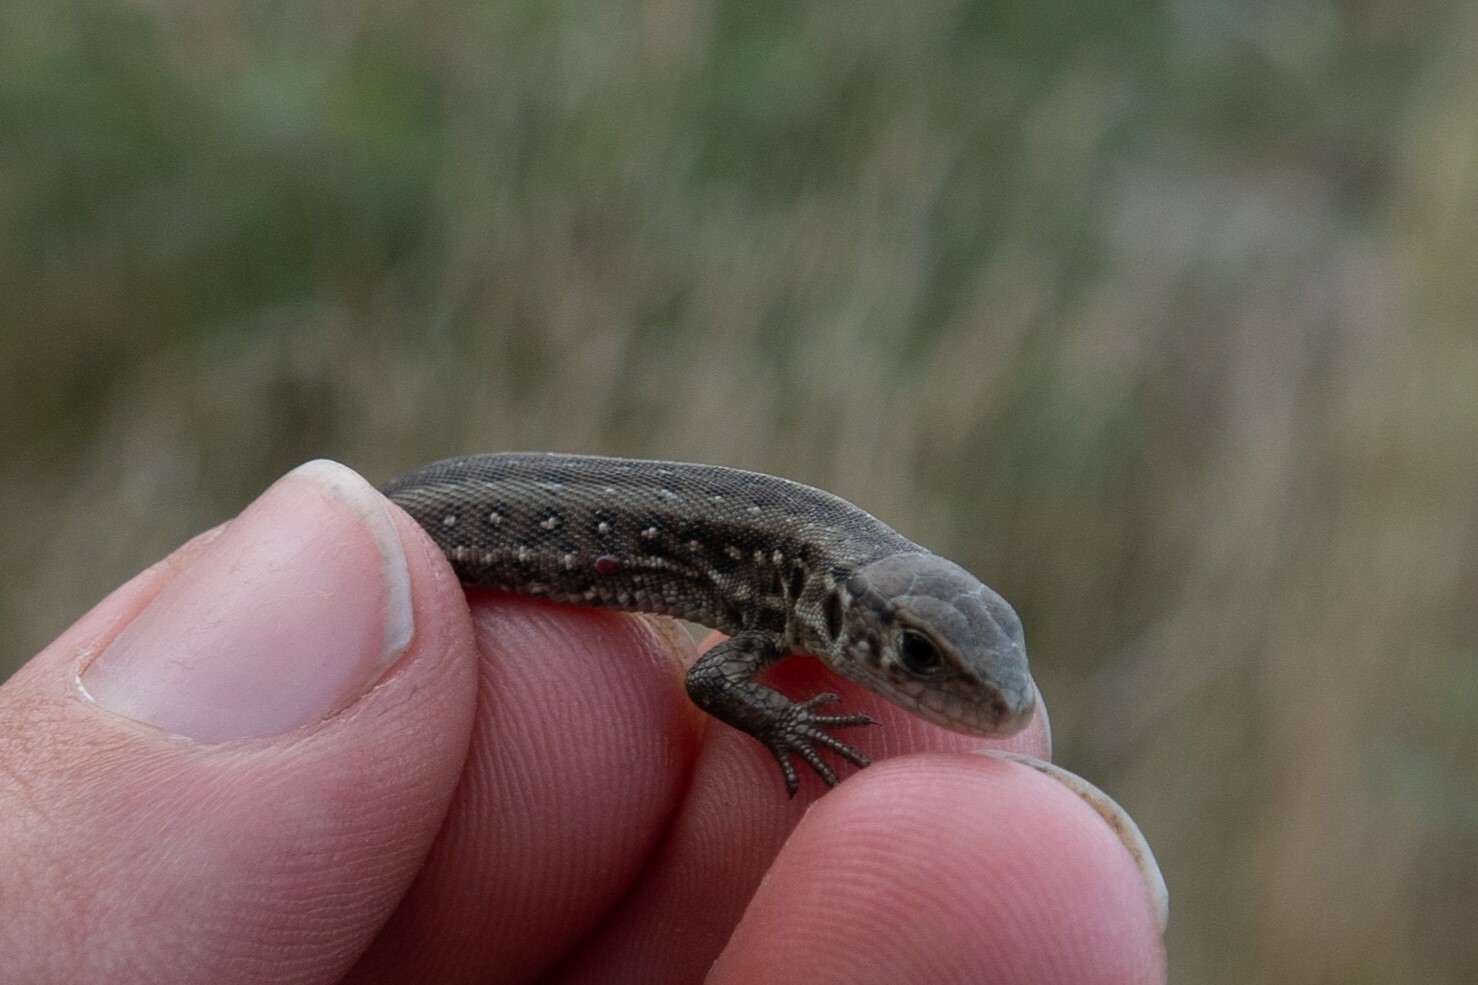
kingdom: Animalia
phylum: Chordata
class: Squamata
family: Lacertidae
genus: Lacerta
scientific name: Lacerta agilis
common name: Sand lizard
